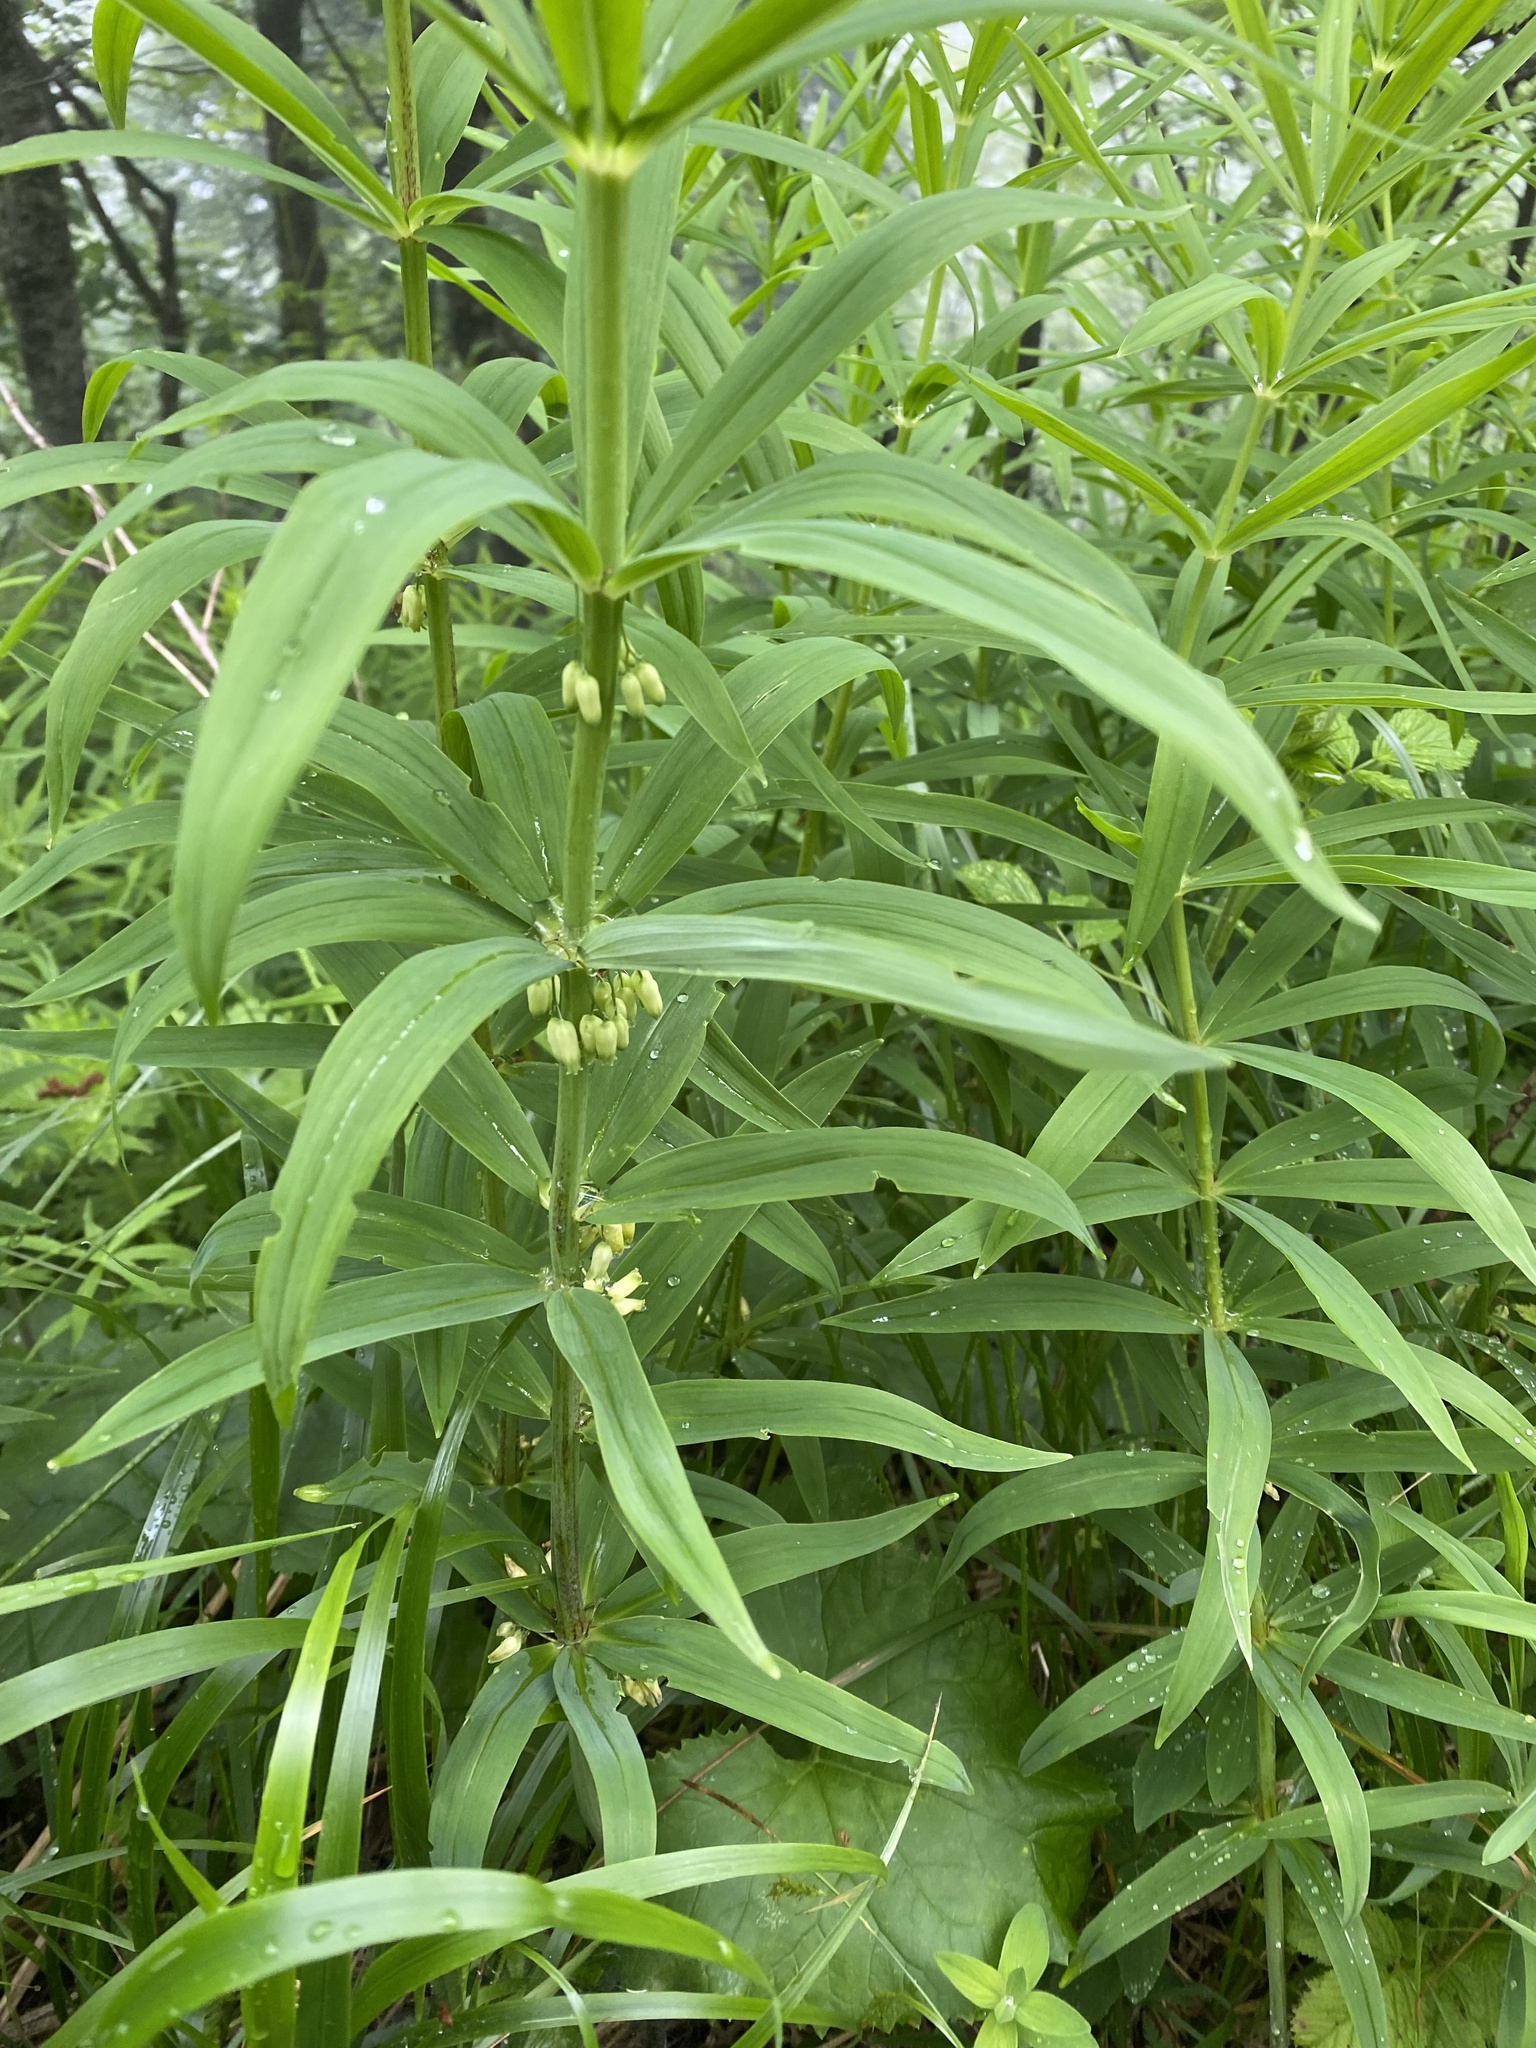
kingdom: Plantae
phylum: Tracheophyta
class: Liliopsida
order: Asparagales
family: Asparagaceae
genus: Polygonatum
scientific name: Polygonatum verticillatum
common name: Whorled solomon's-seal
